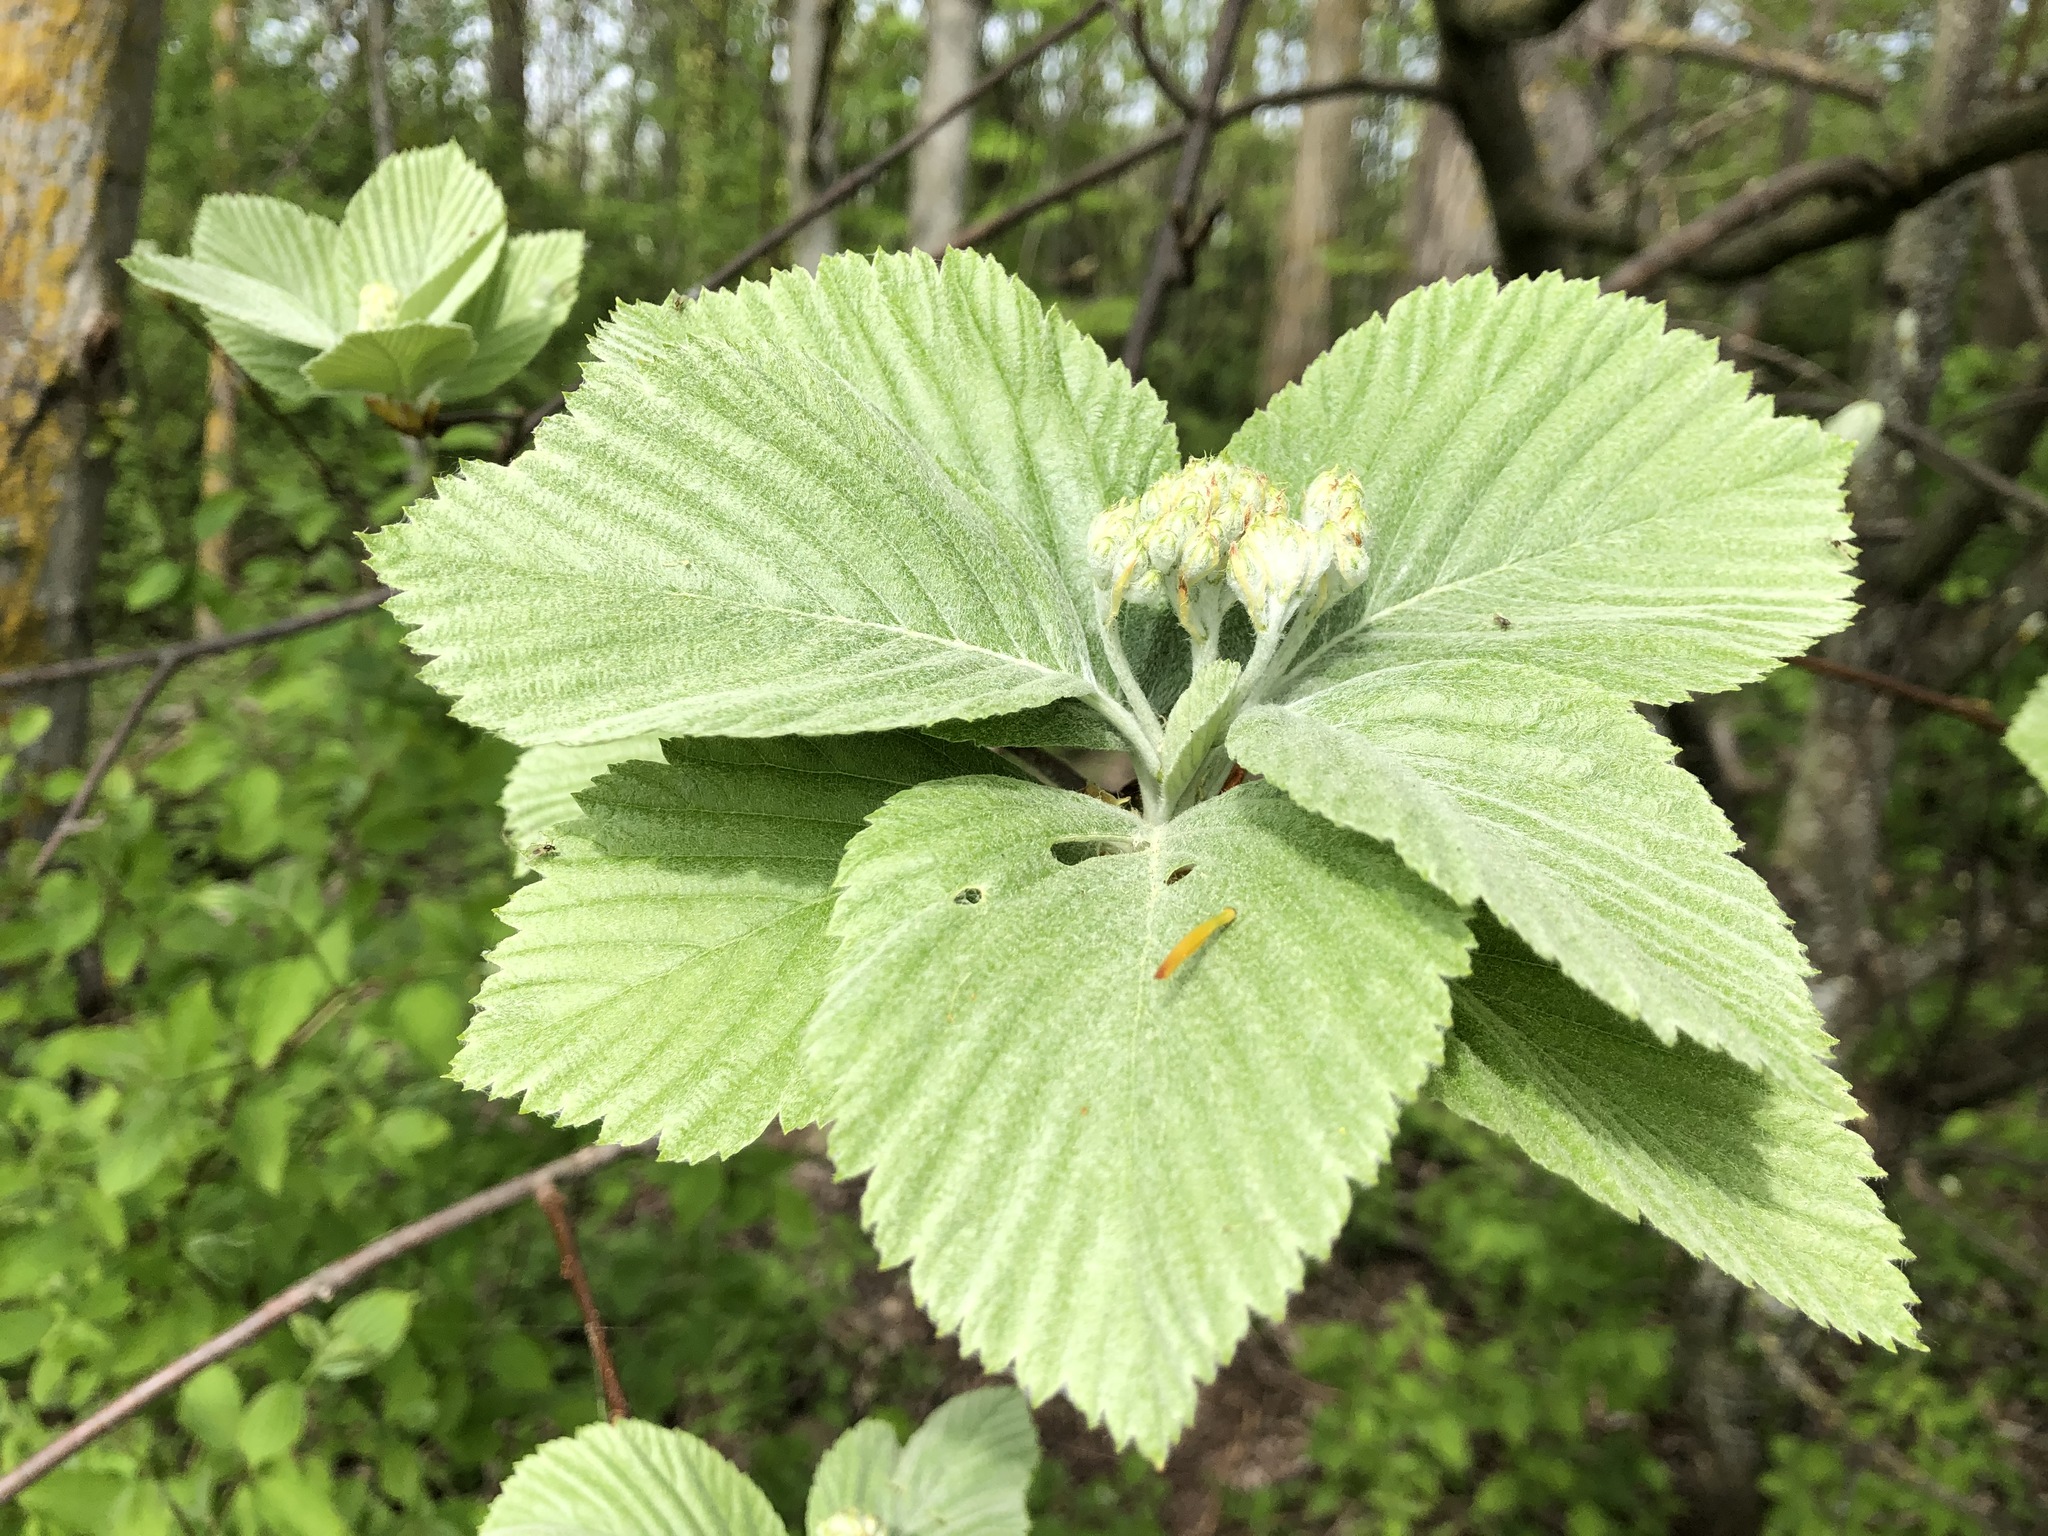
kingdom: Plantae
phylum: Tracheophyta
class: Magnoliopsida
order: Rosales
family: Rosaceae
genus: Aria
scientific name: Aria edulis
